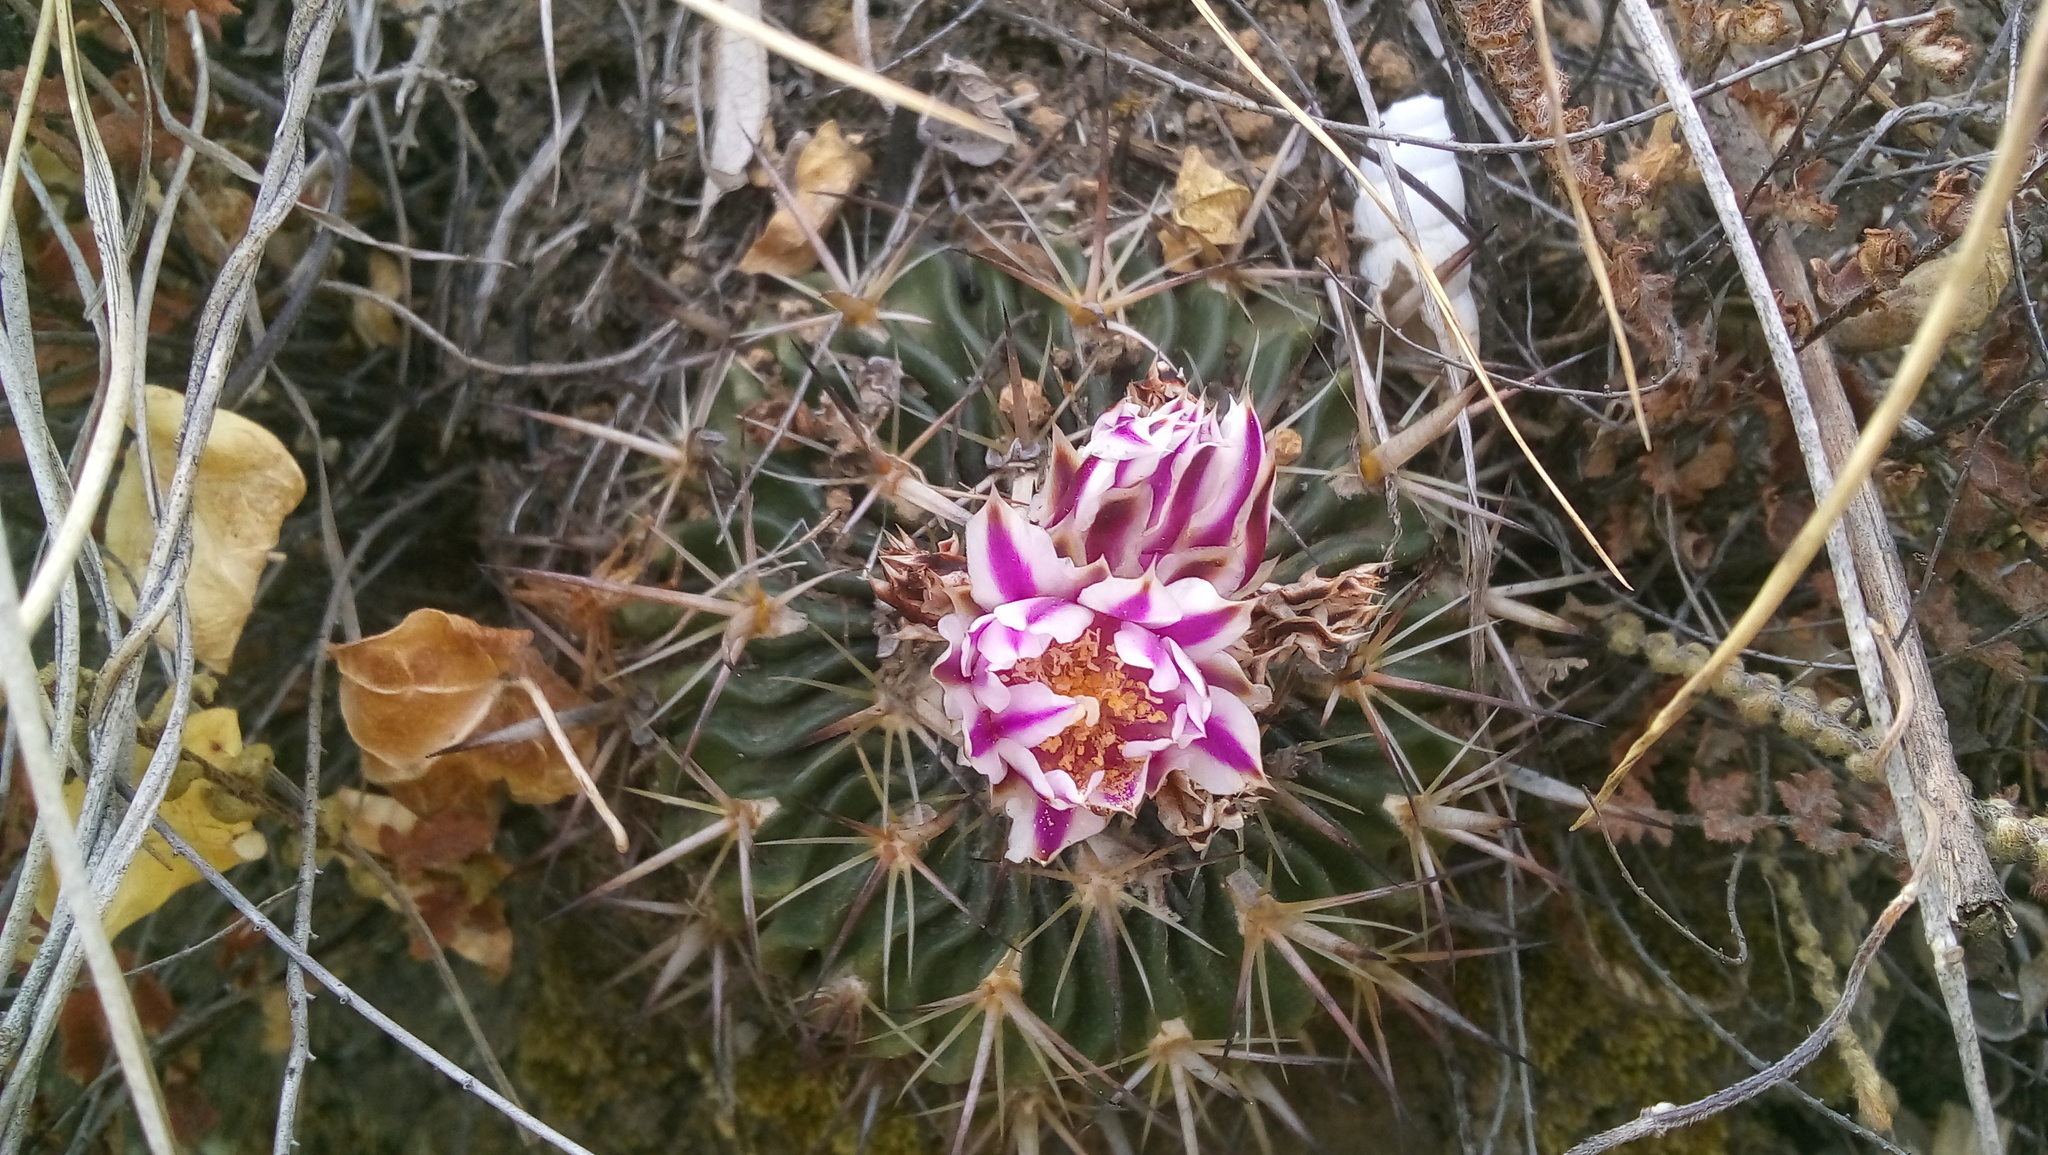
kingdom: Plantae
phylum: Tracheophyta
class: Magnoliopsida
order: Caryophyllales
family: Cactaceae
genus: Stenocactus
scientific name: Stenocactus crispatus
